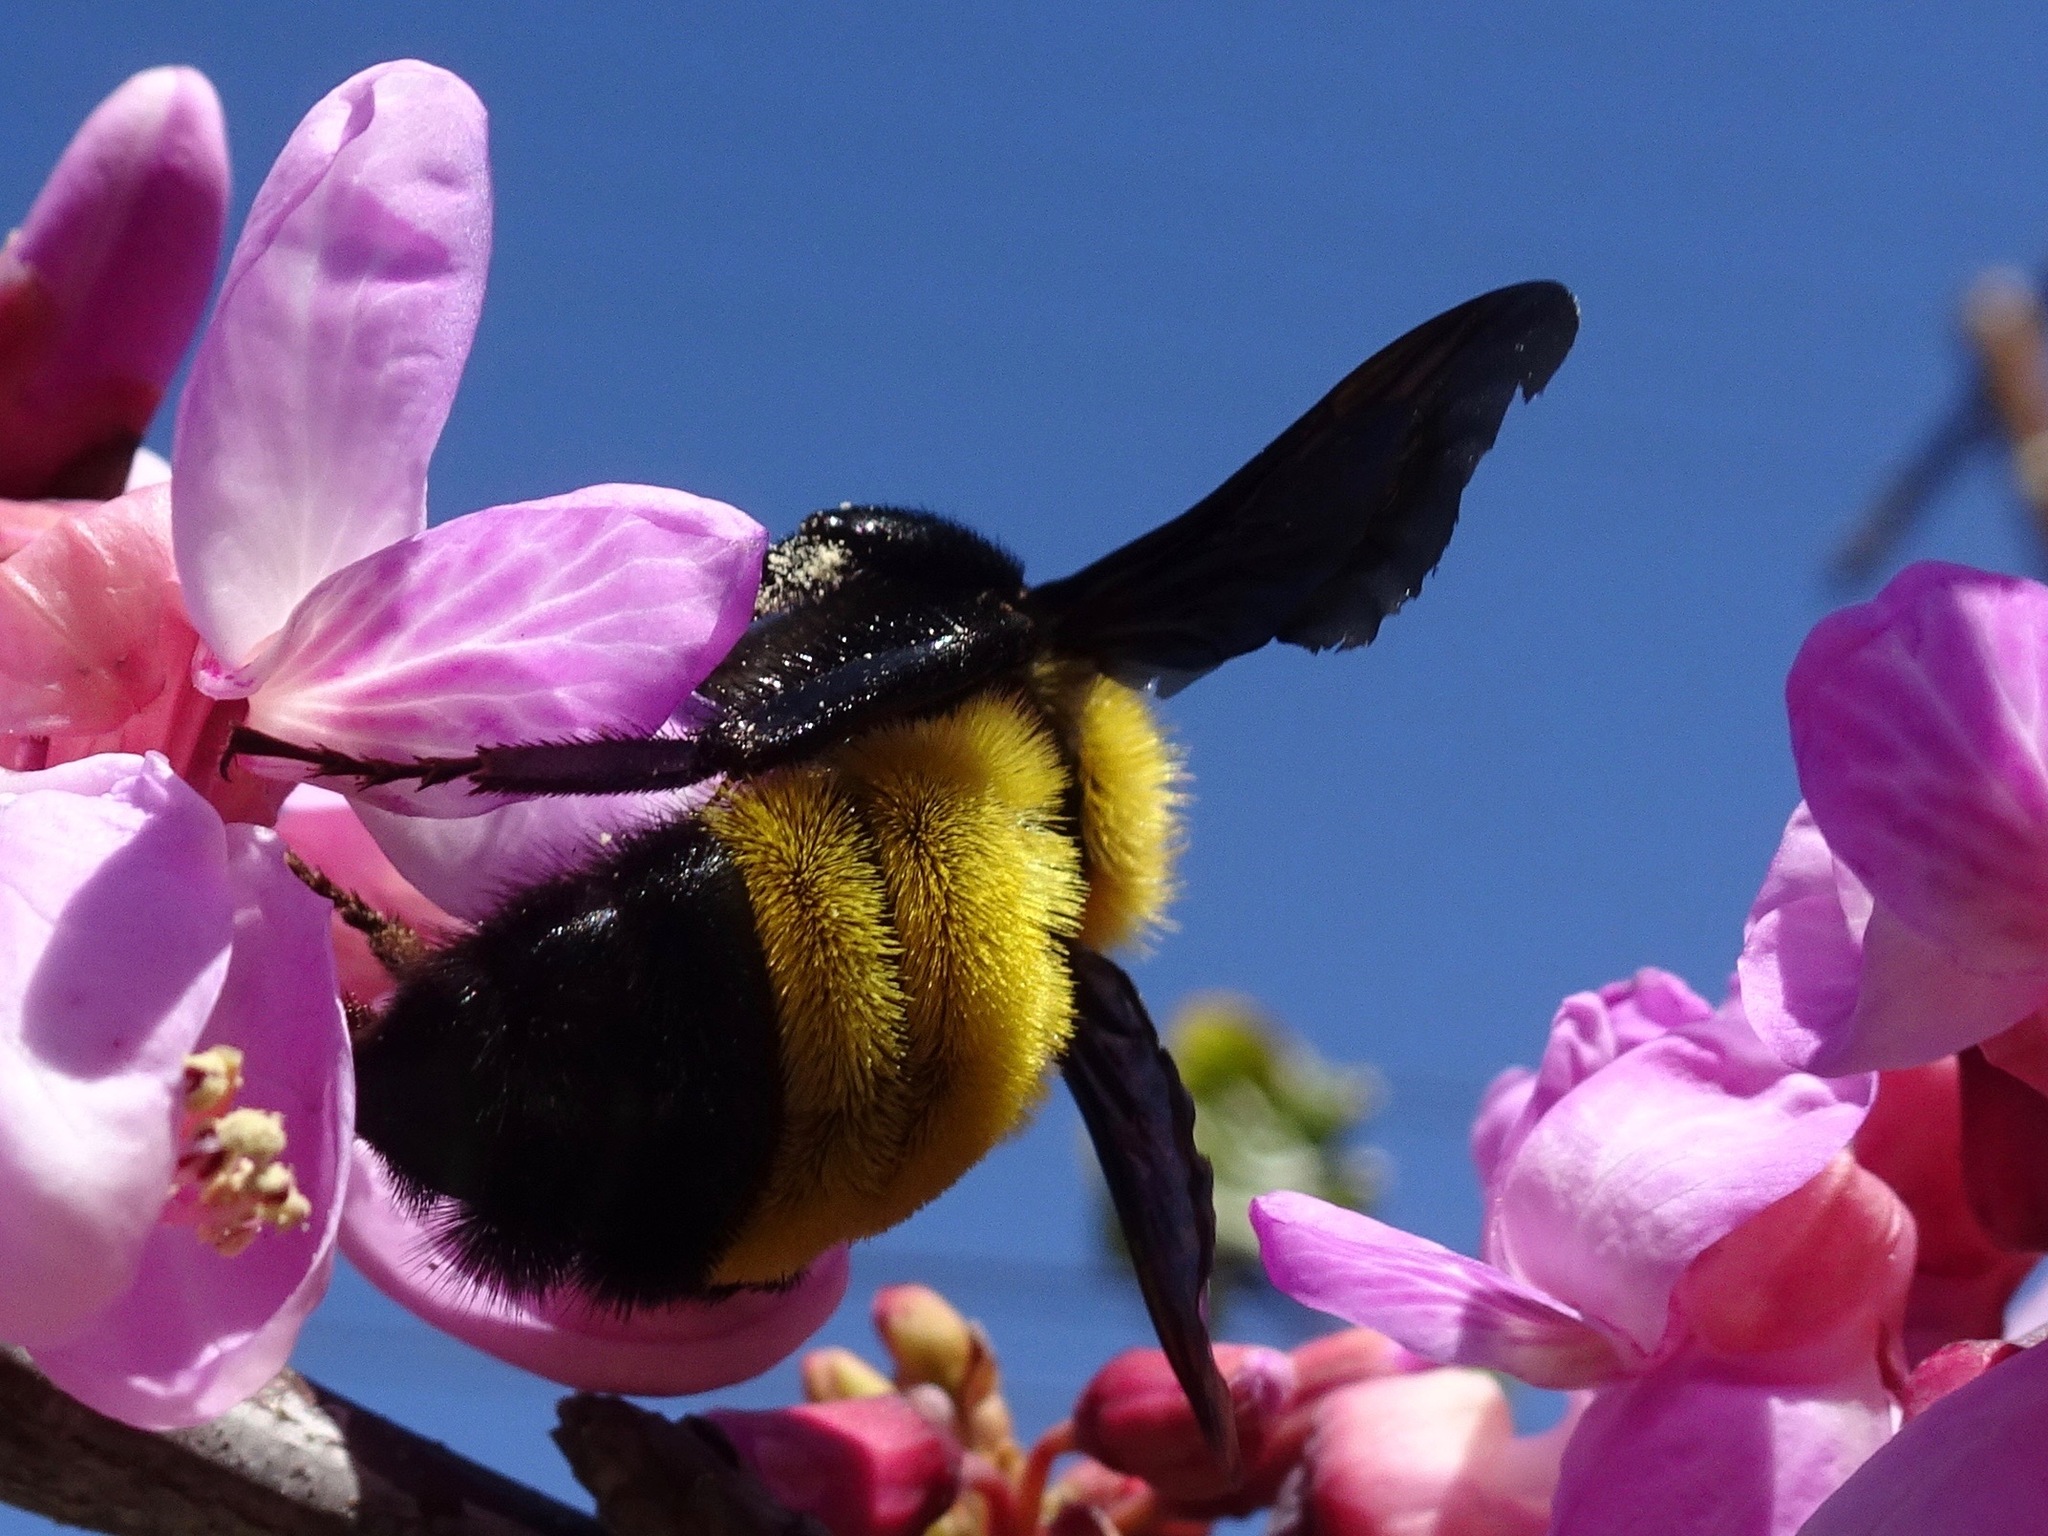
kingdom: Animalia
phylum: Arthropoda
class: Insecta
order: Hymenoptera
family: Apidae
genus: Bombus
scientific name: Bombus sonorus
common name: Sonoran bumble bee
